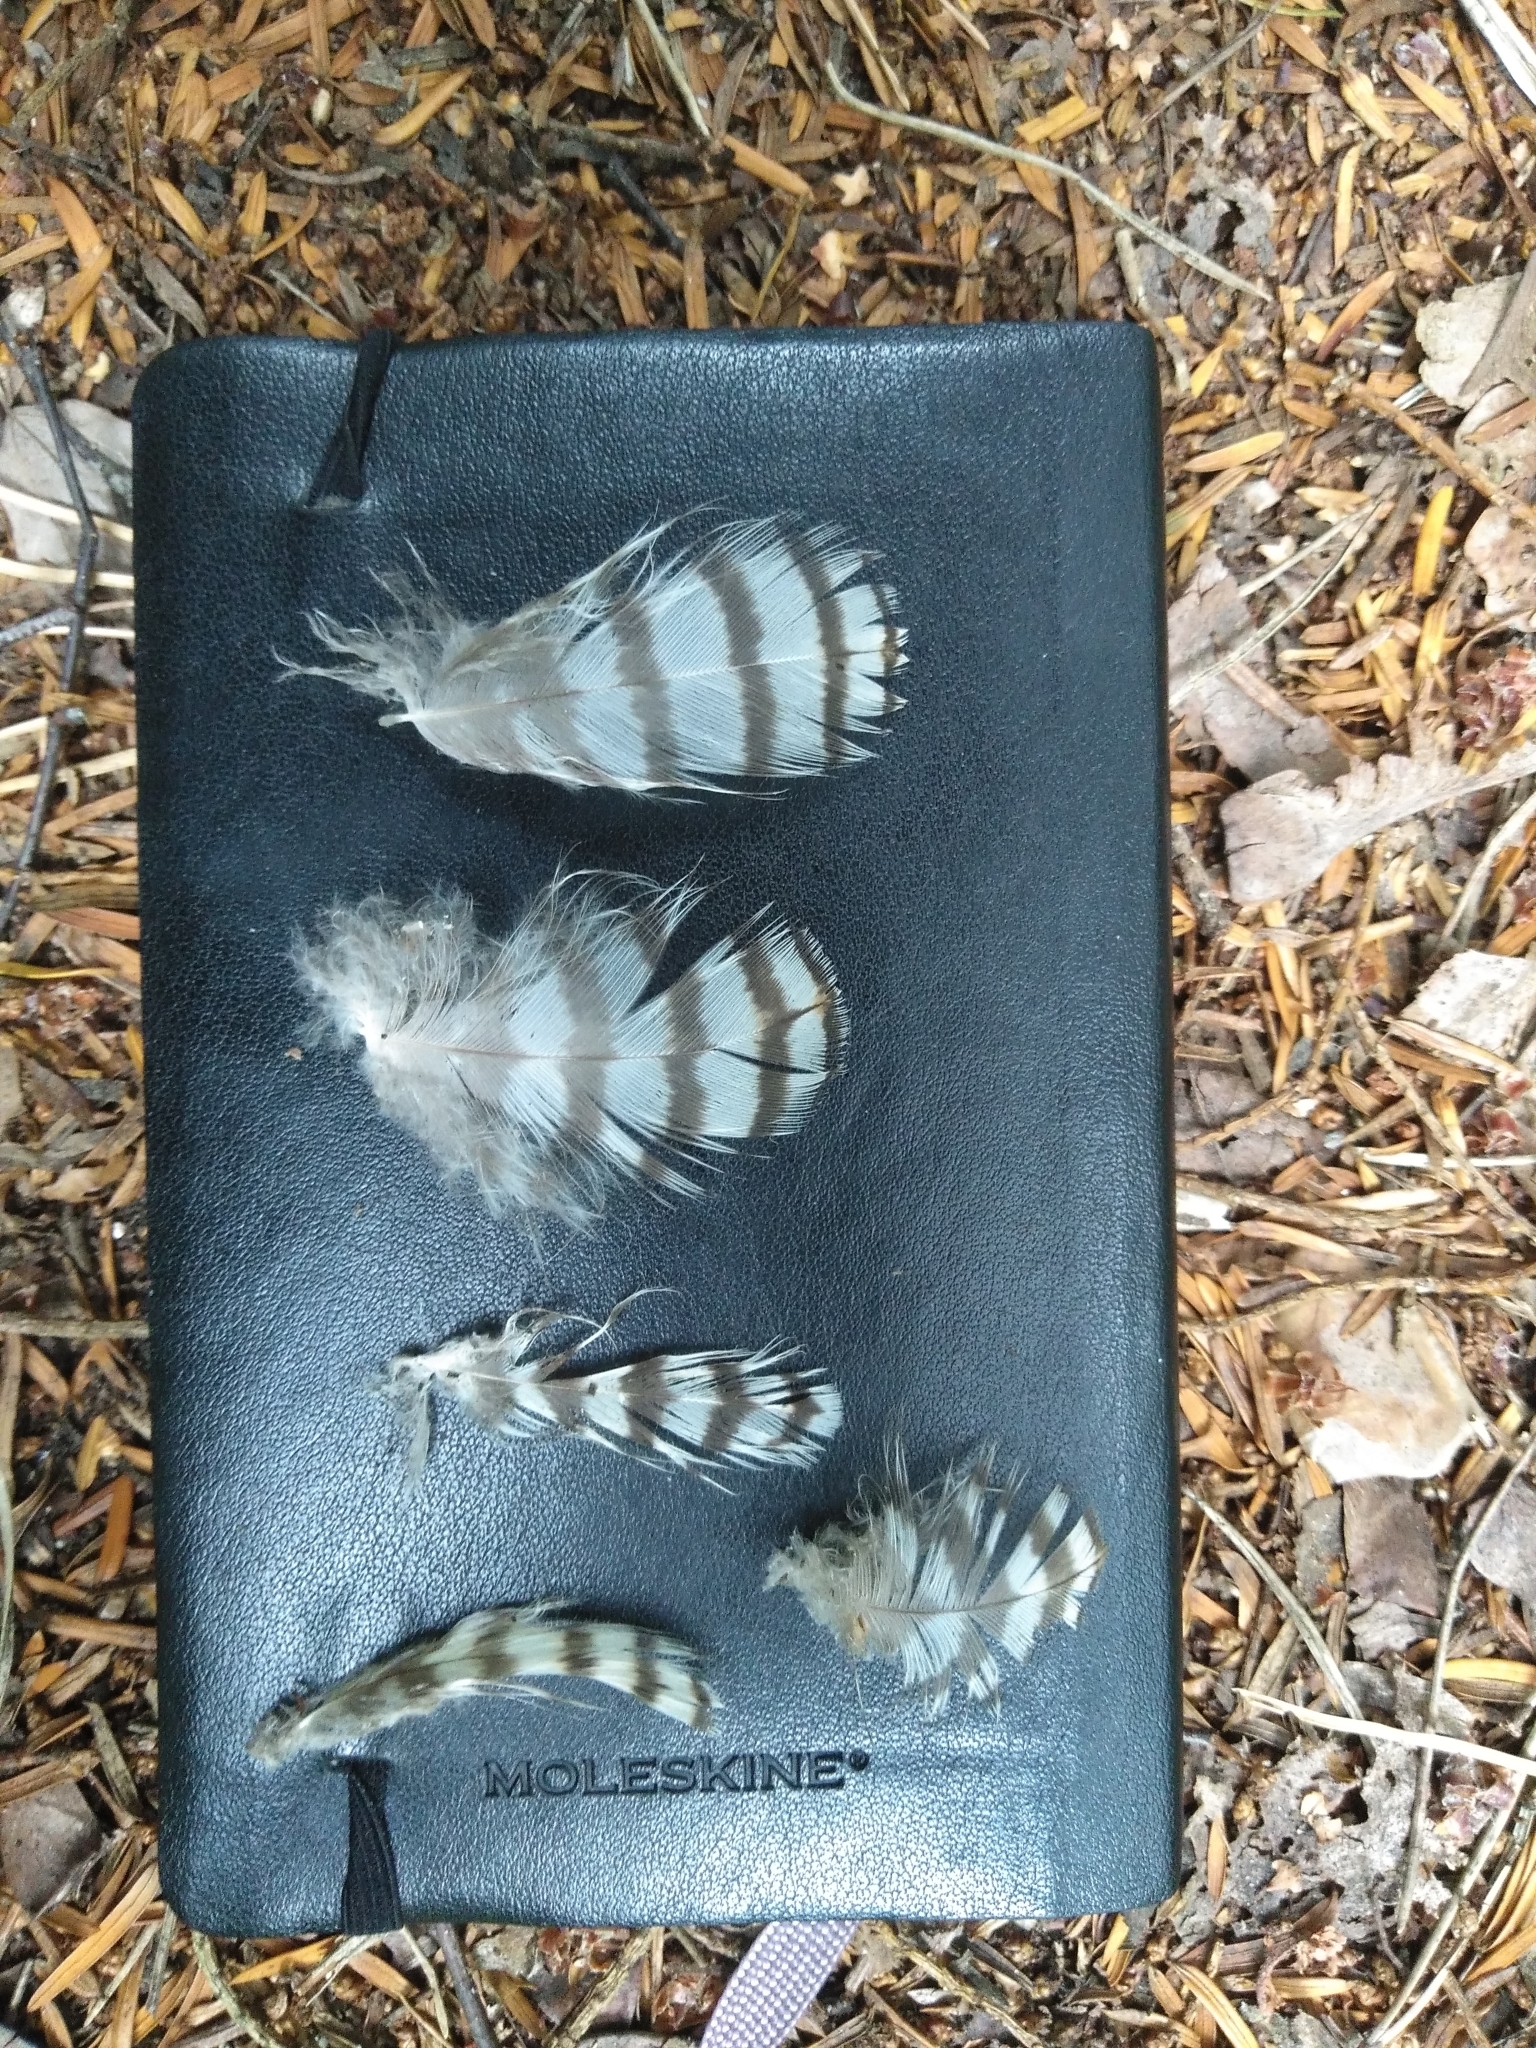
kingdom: Animalia
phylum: Chordata
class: Aves
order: Accipitriformes
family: Accipitridae
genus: Accipiter
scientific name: Accipiter nisus
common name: Eurasian sparrowhawk
